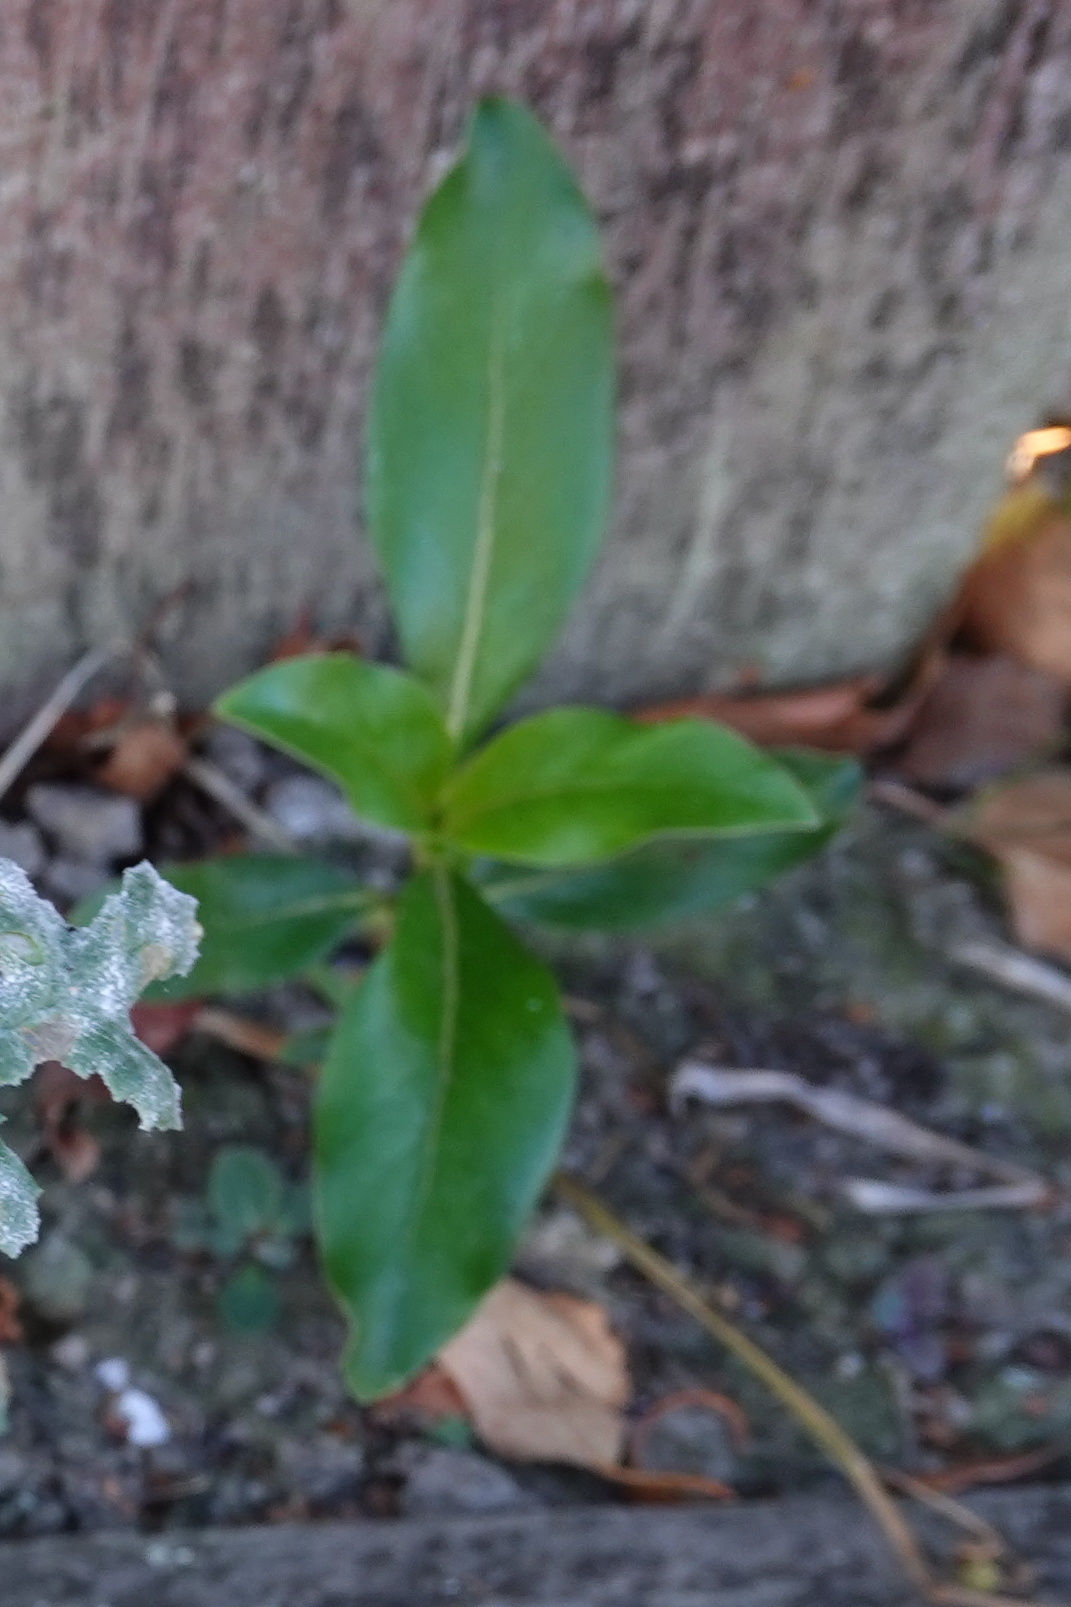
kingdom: Plantae
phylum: Tracheophyta
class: Magnoliopsida
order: Gentianales
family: Rubiaceae
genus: Coprosma
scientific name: Coprosma robusta
